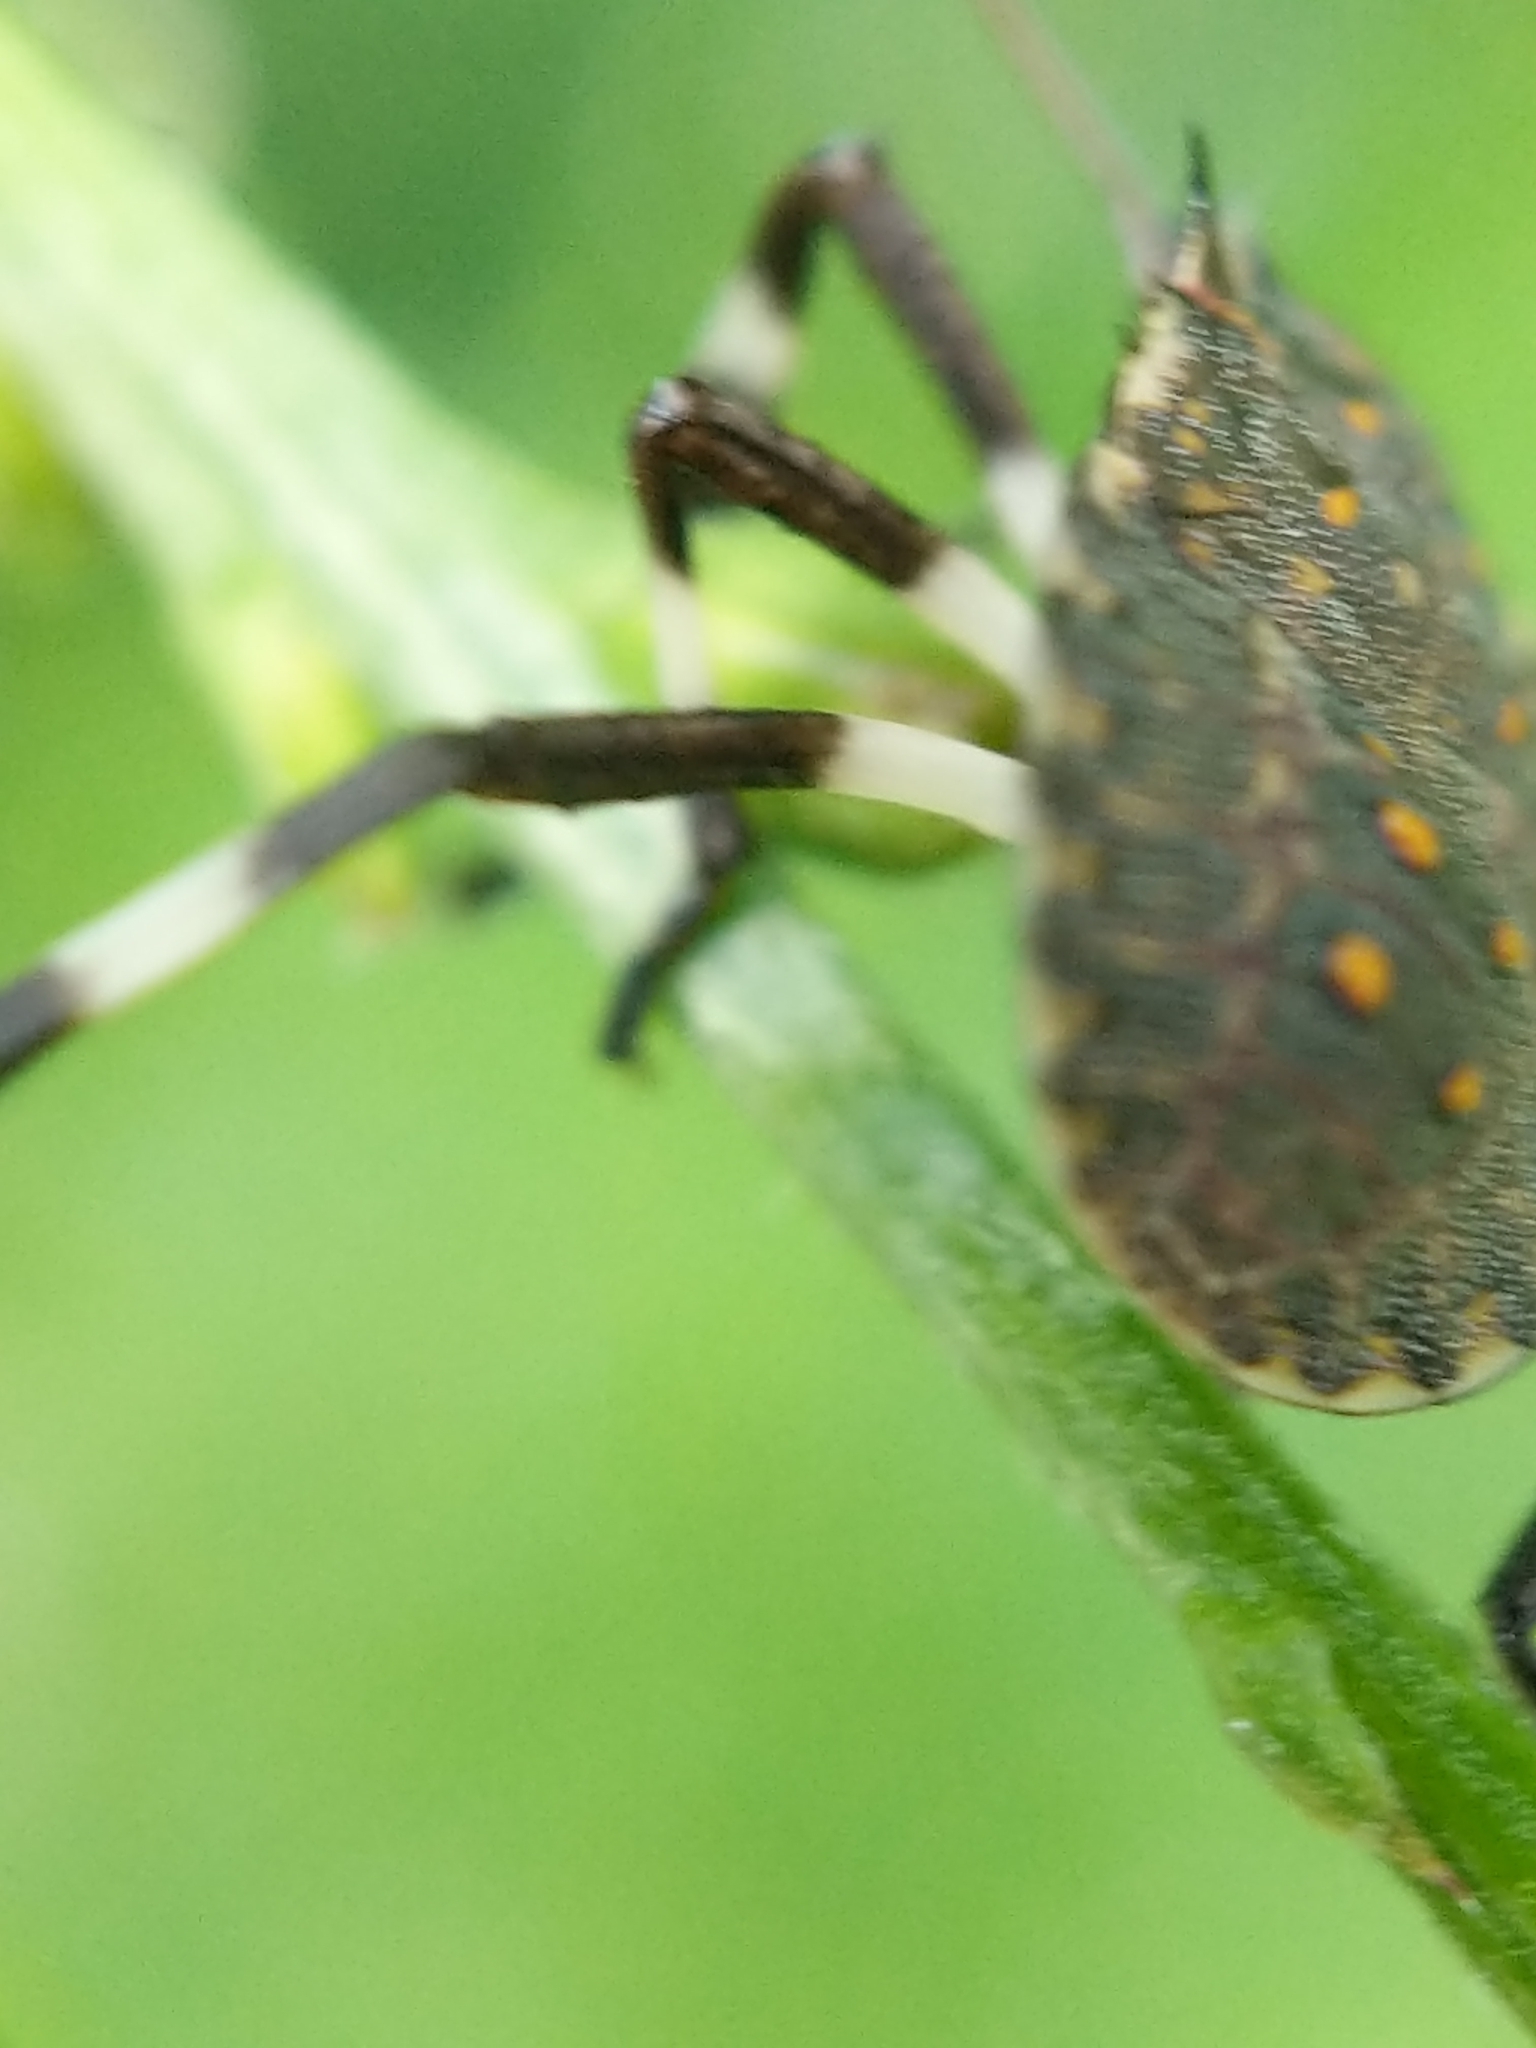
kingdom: Animalia
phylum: Arthropoda
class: Insecta
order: Hemiptera
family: Pentatomidae
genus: Halyomorpha
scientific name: Halyomorpha halys
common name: Brown marmorated stink bug
